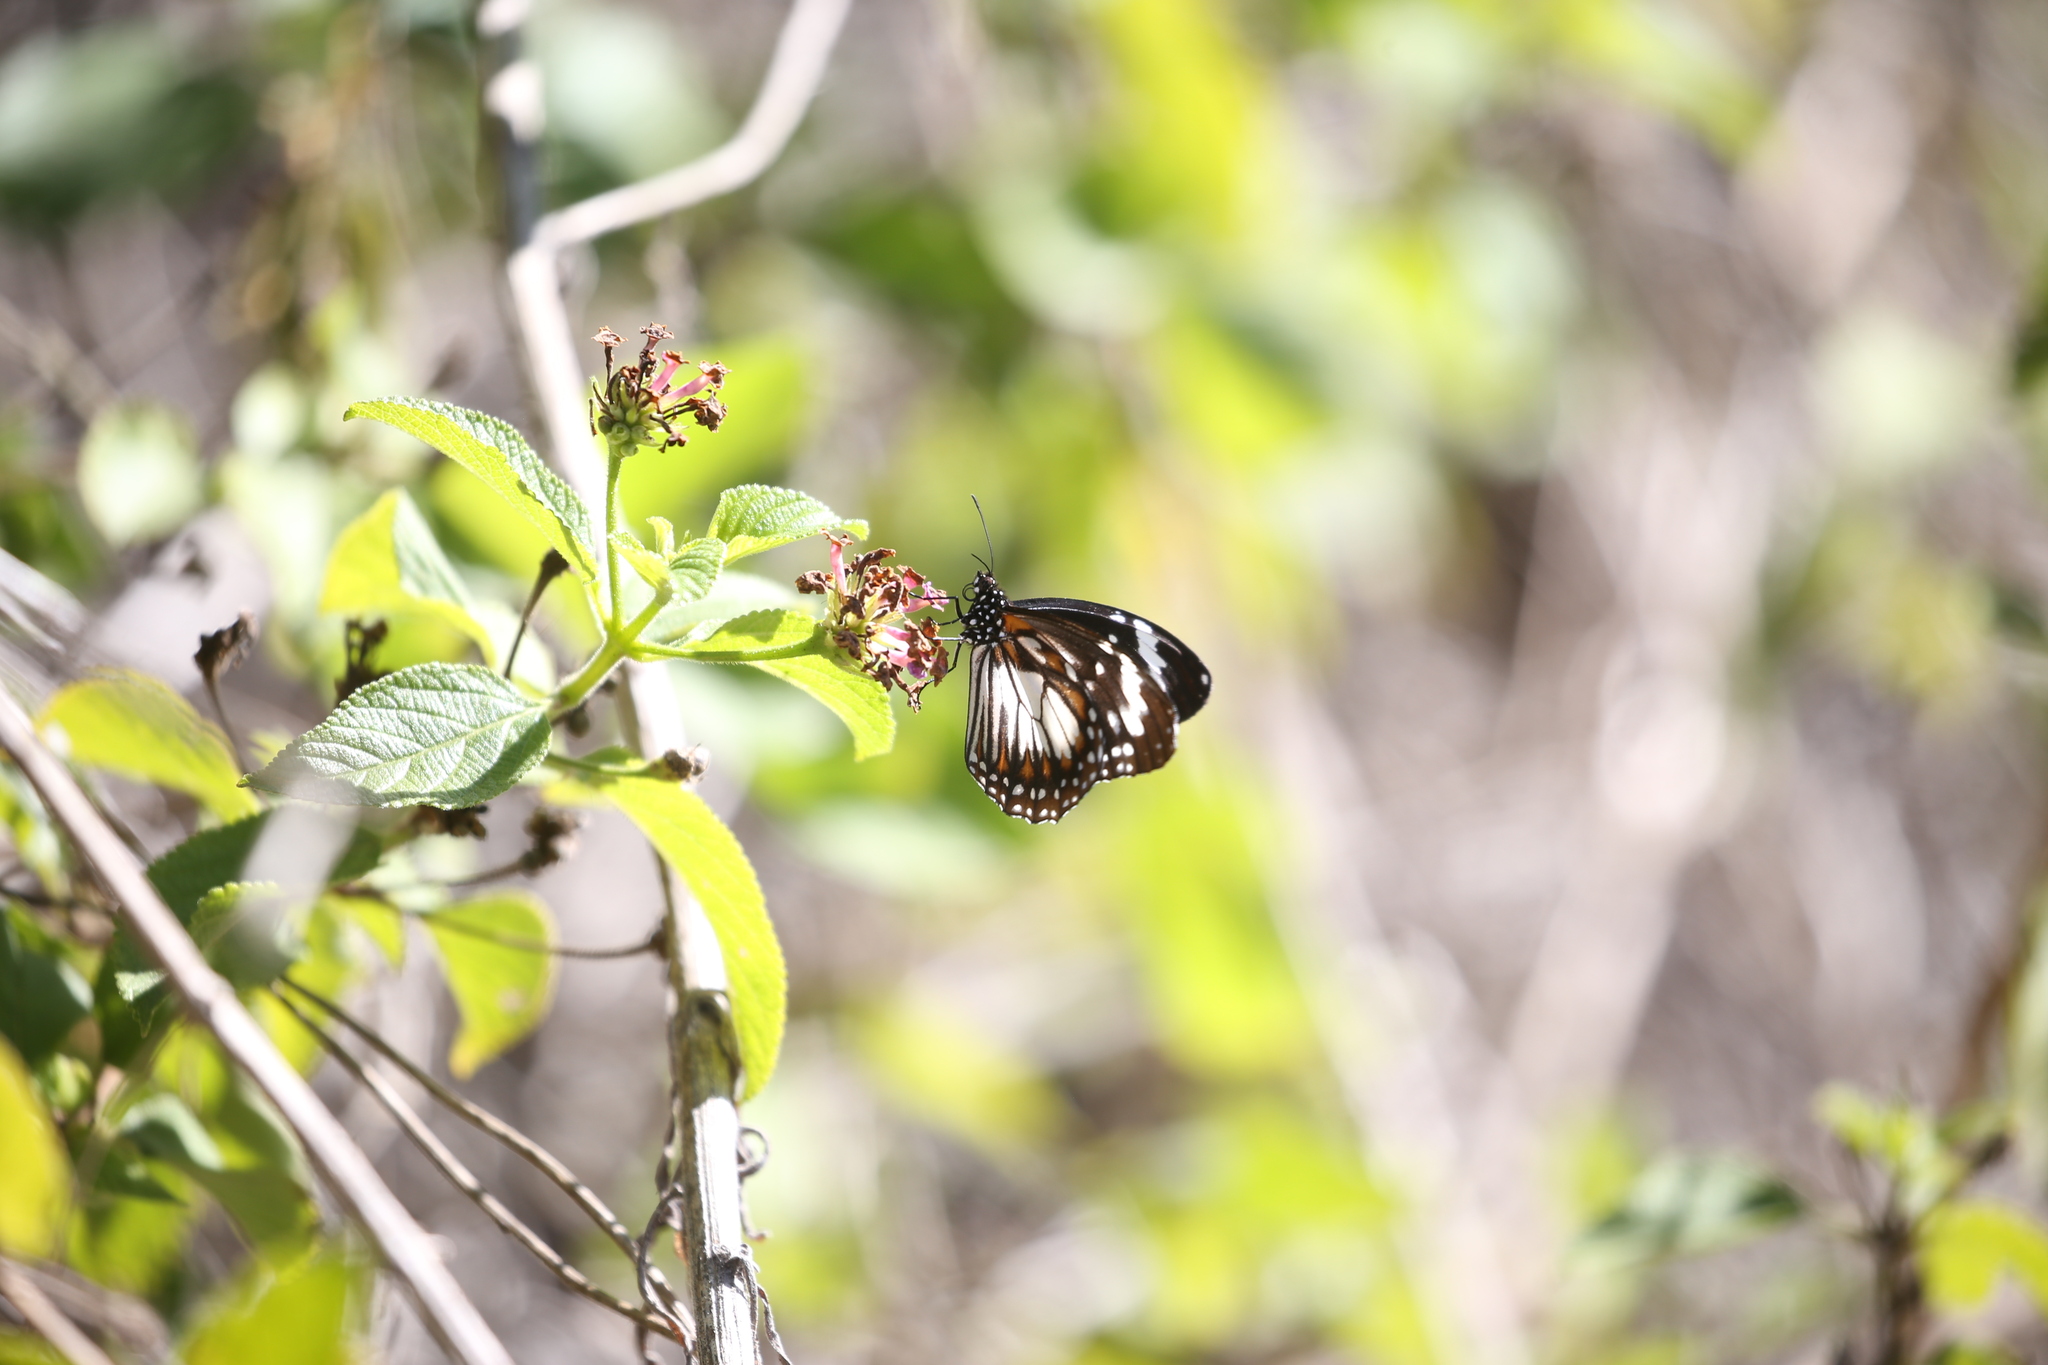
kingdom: Animalia
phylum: Arthropoda
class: Insecta
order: Lepidoptera
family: Nymphalidae
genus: Danaus
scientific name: Danaus affinis
